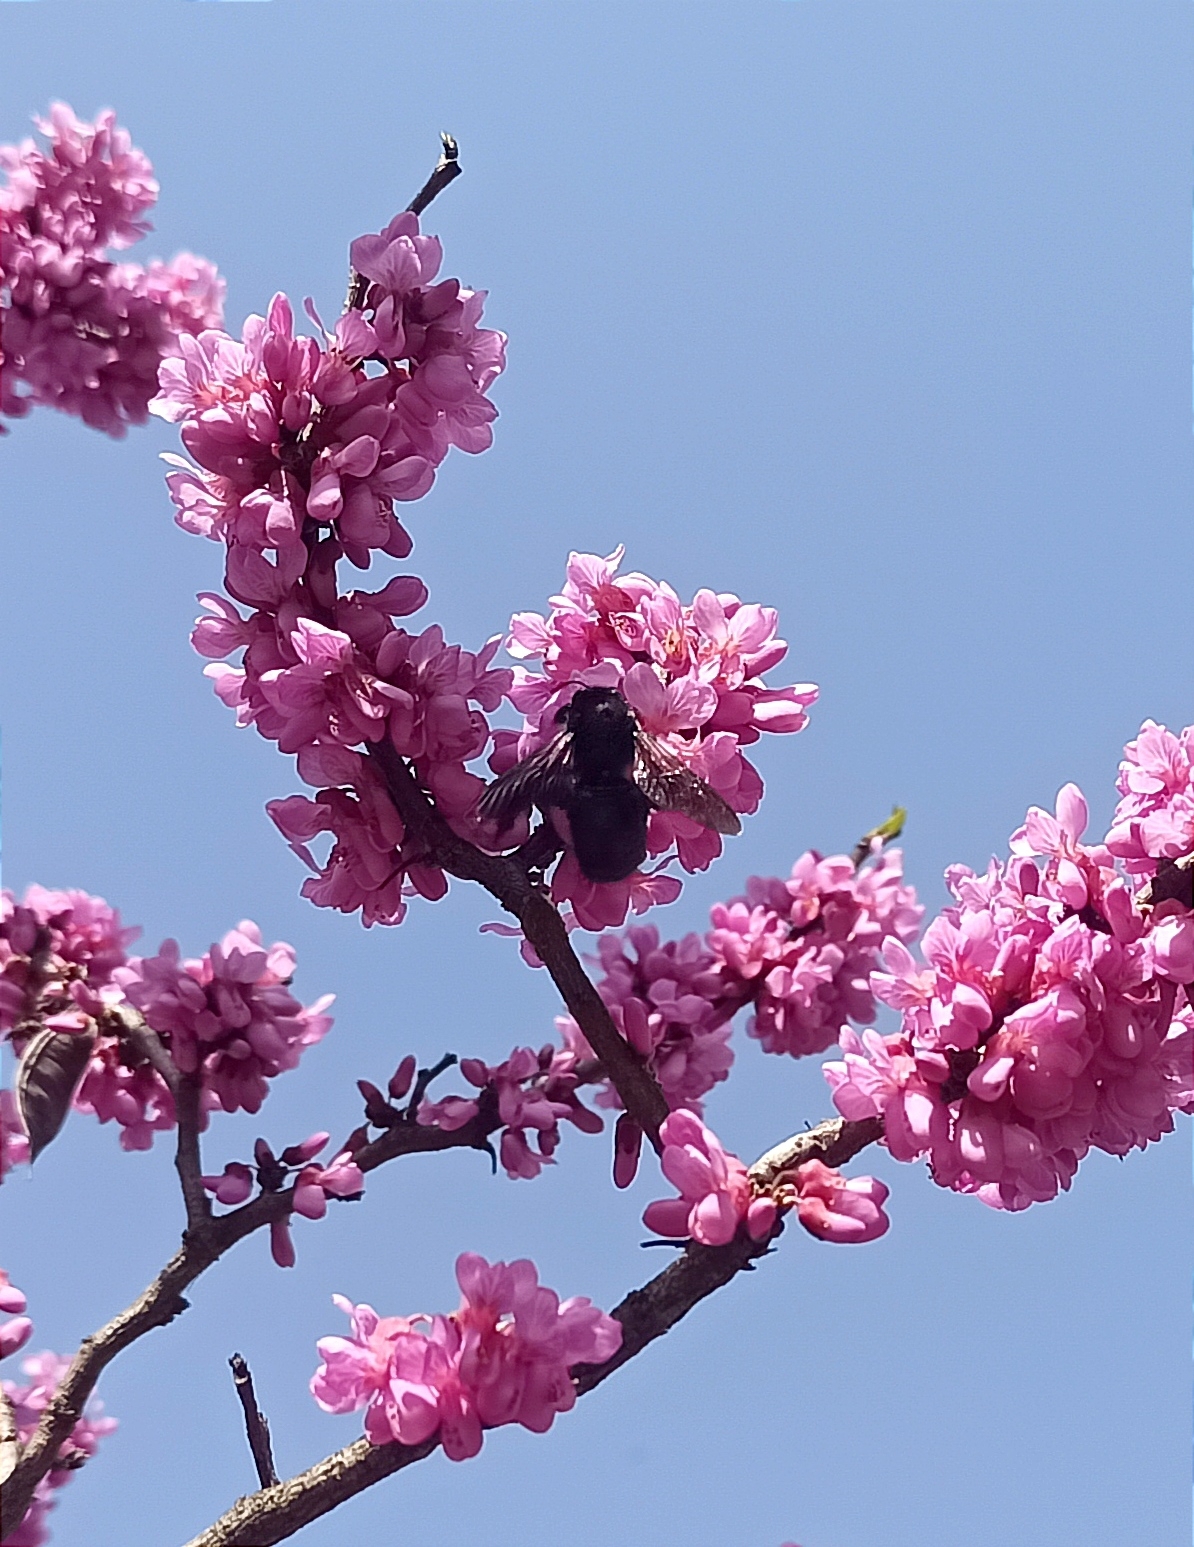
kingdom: Animalia
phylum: Arthropoda
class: Insecta
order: Hymenoptera
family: Apidae
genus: Xylocopa
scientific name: Xylocopa tranquebarorum
